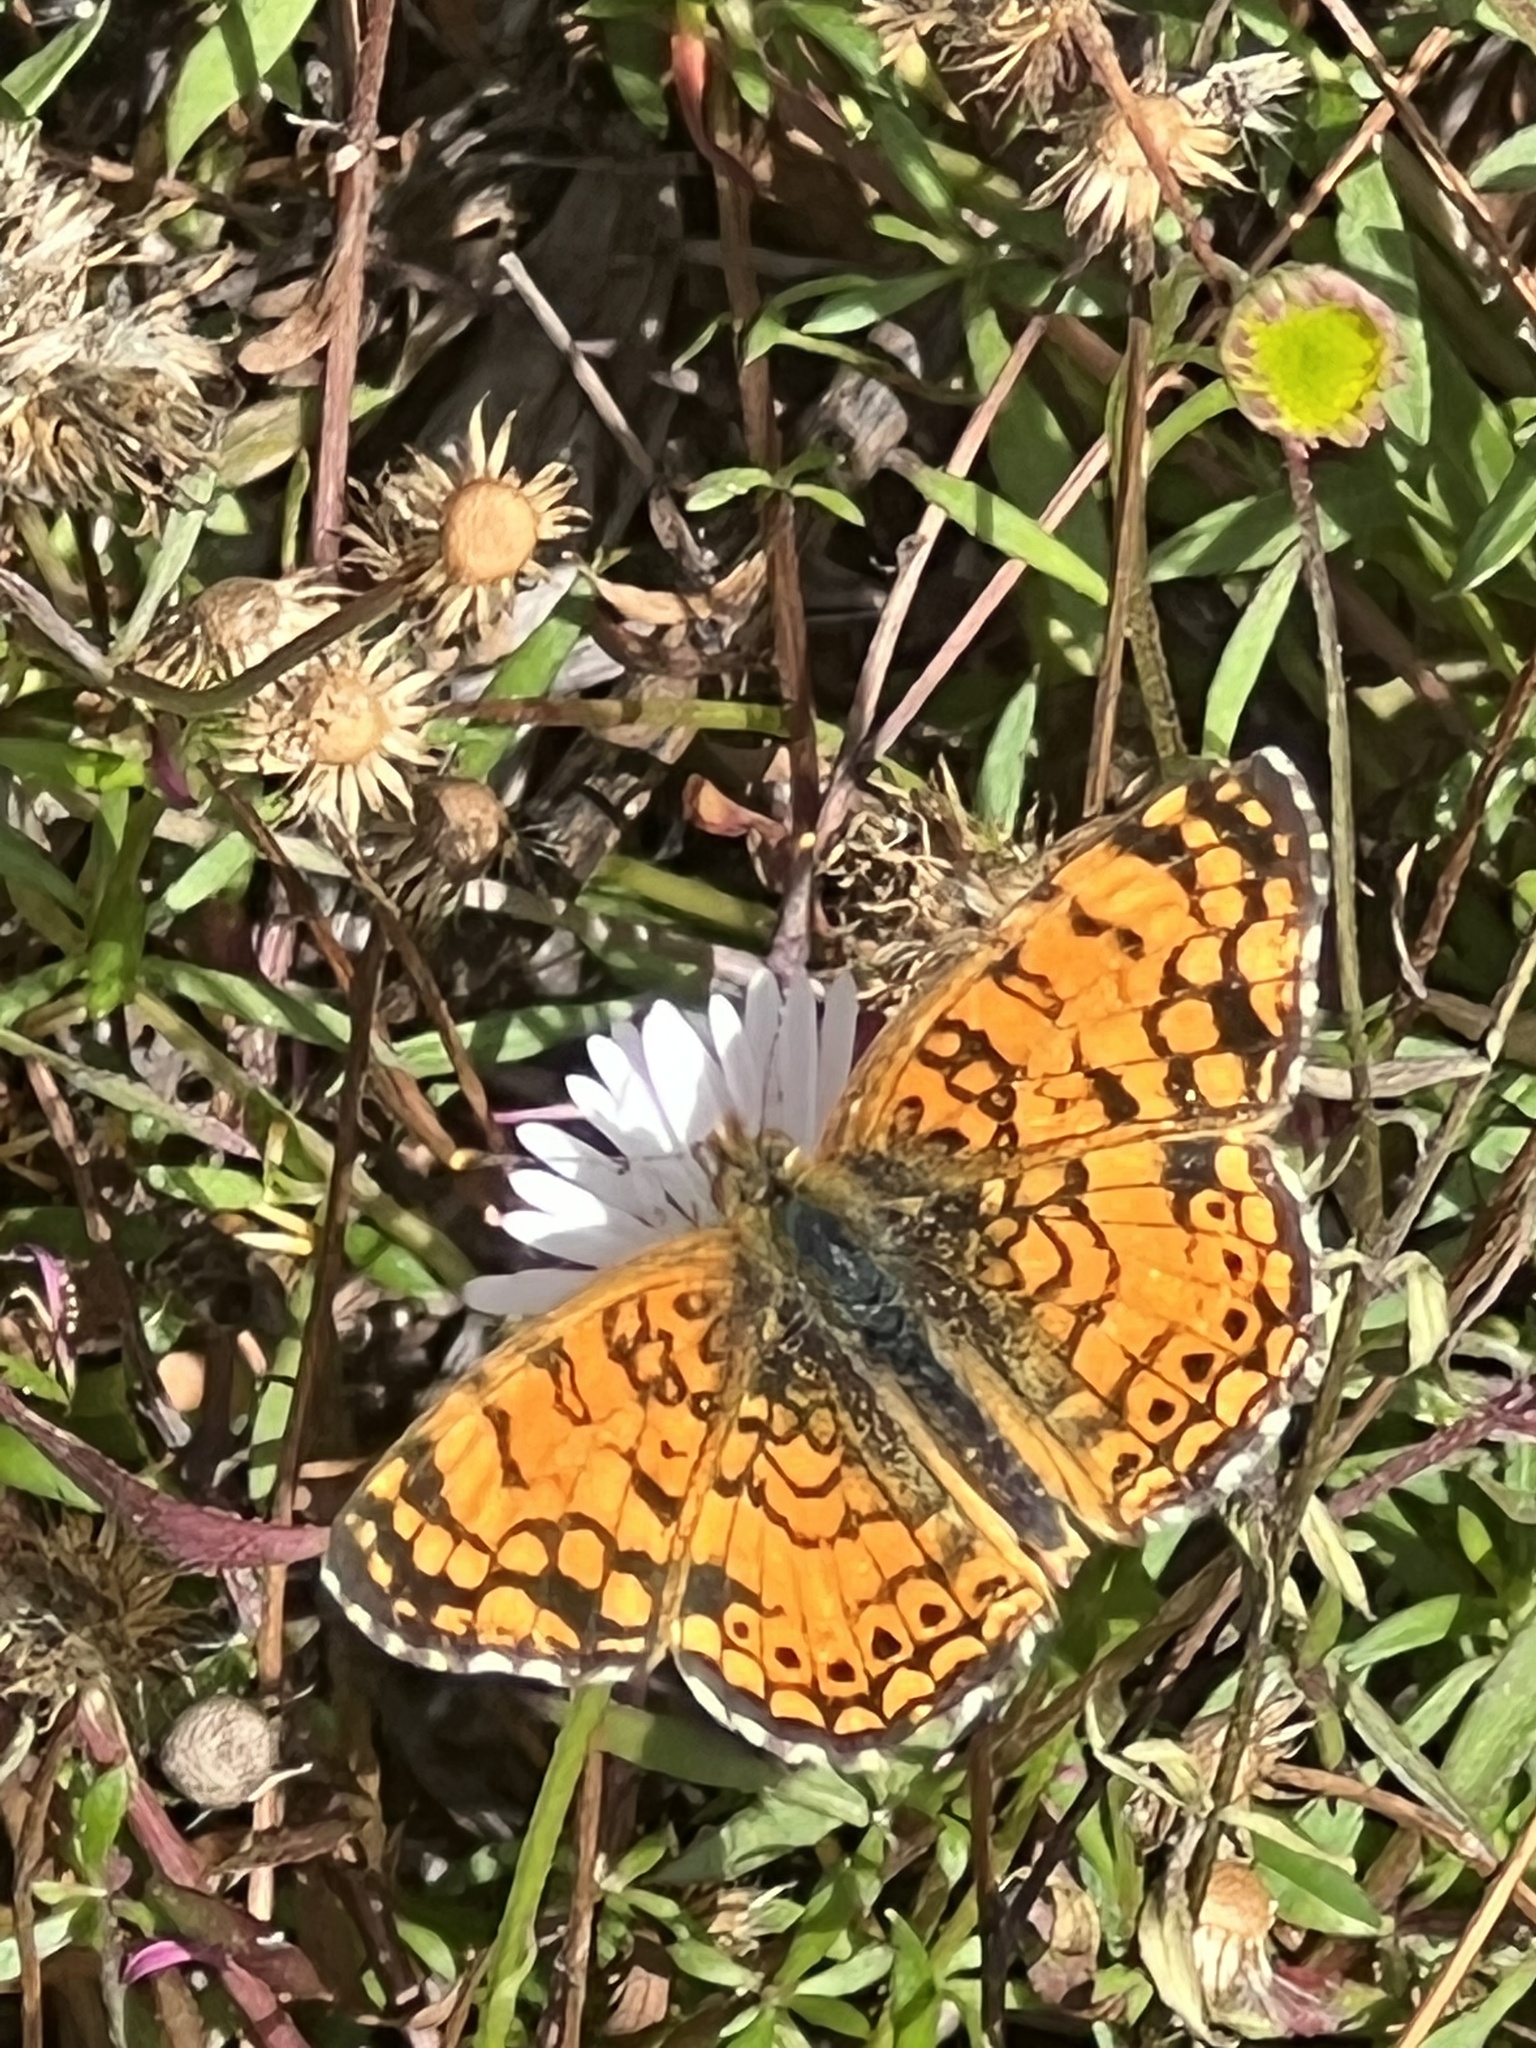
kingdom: Animalia
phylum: Arthropoda
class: Insecta
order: Lepidoptera
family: Nymphalidae
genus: Eresia
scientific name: Eresia aveyrona
